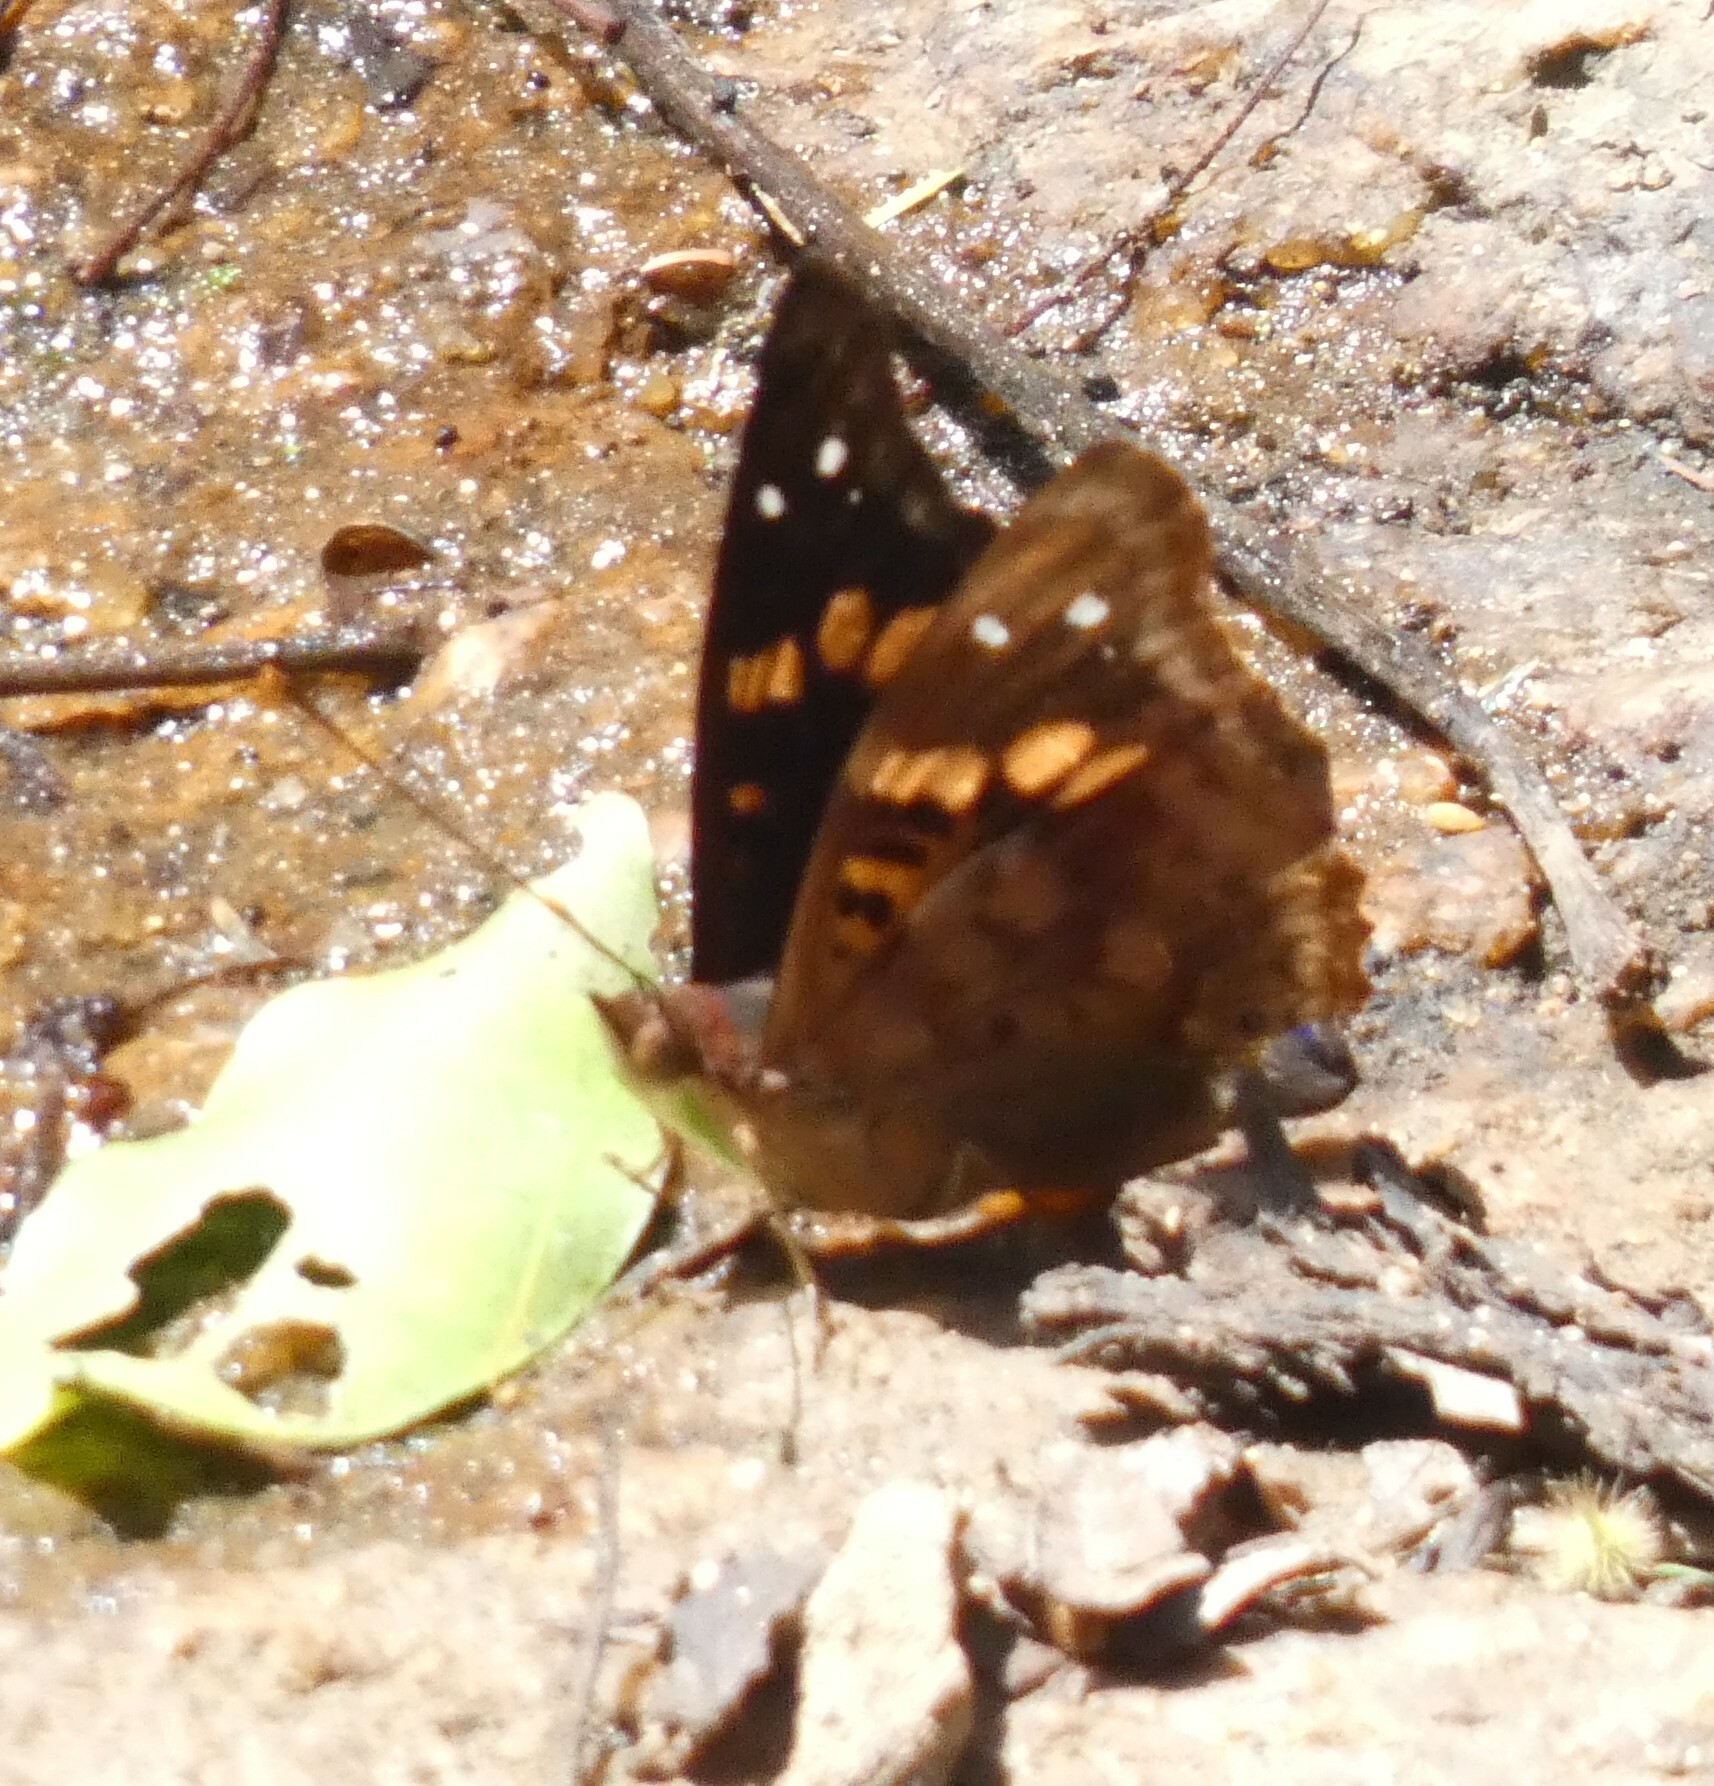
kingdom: Animalia
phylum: Arthropoda
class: Insecta
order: Lepidoptera
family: Nymphalidae
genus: Doxocopa
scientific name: Doxocopa agathina
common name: Agathina emperor
